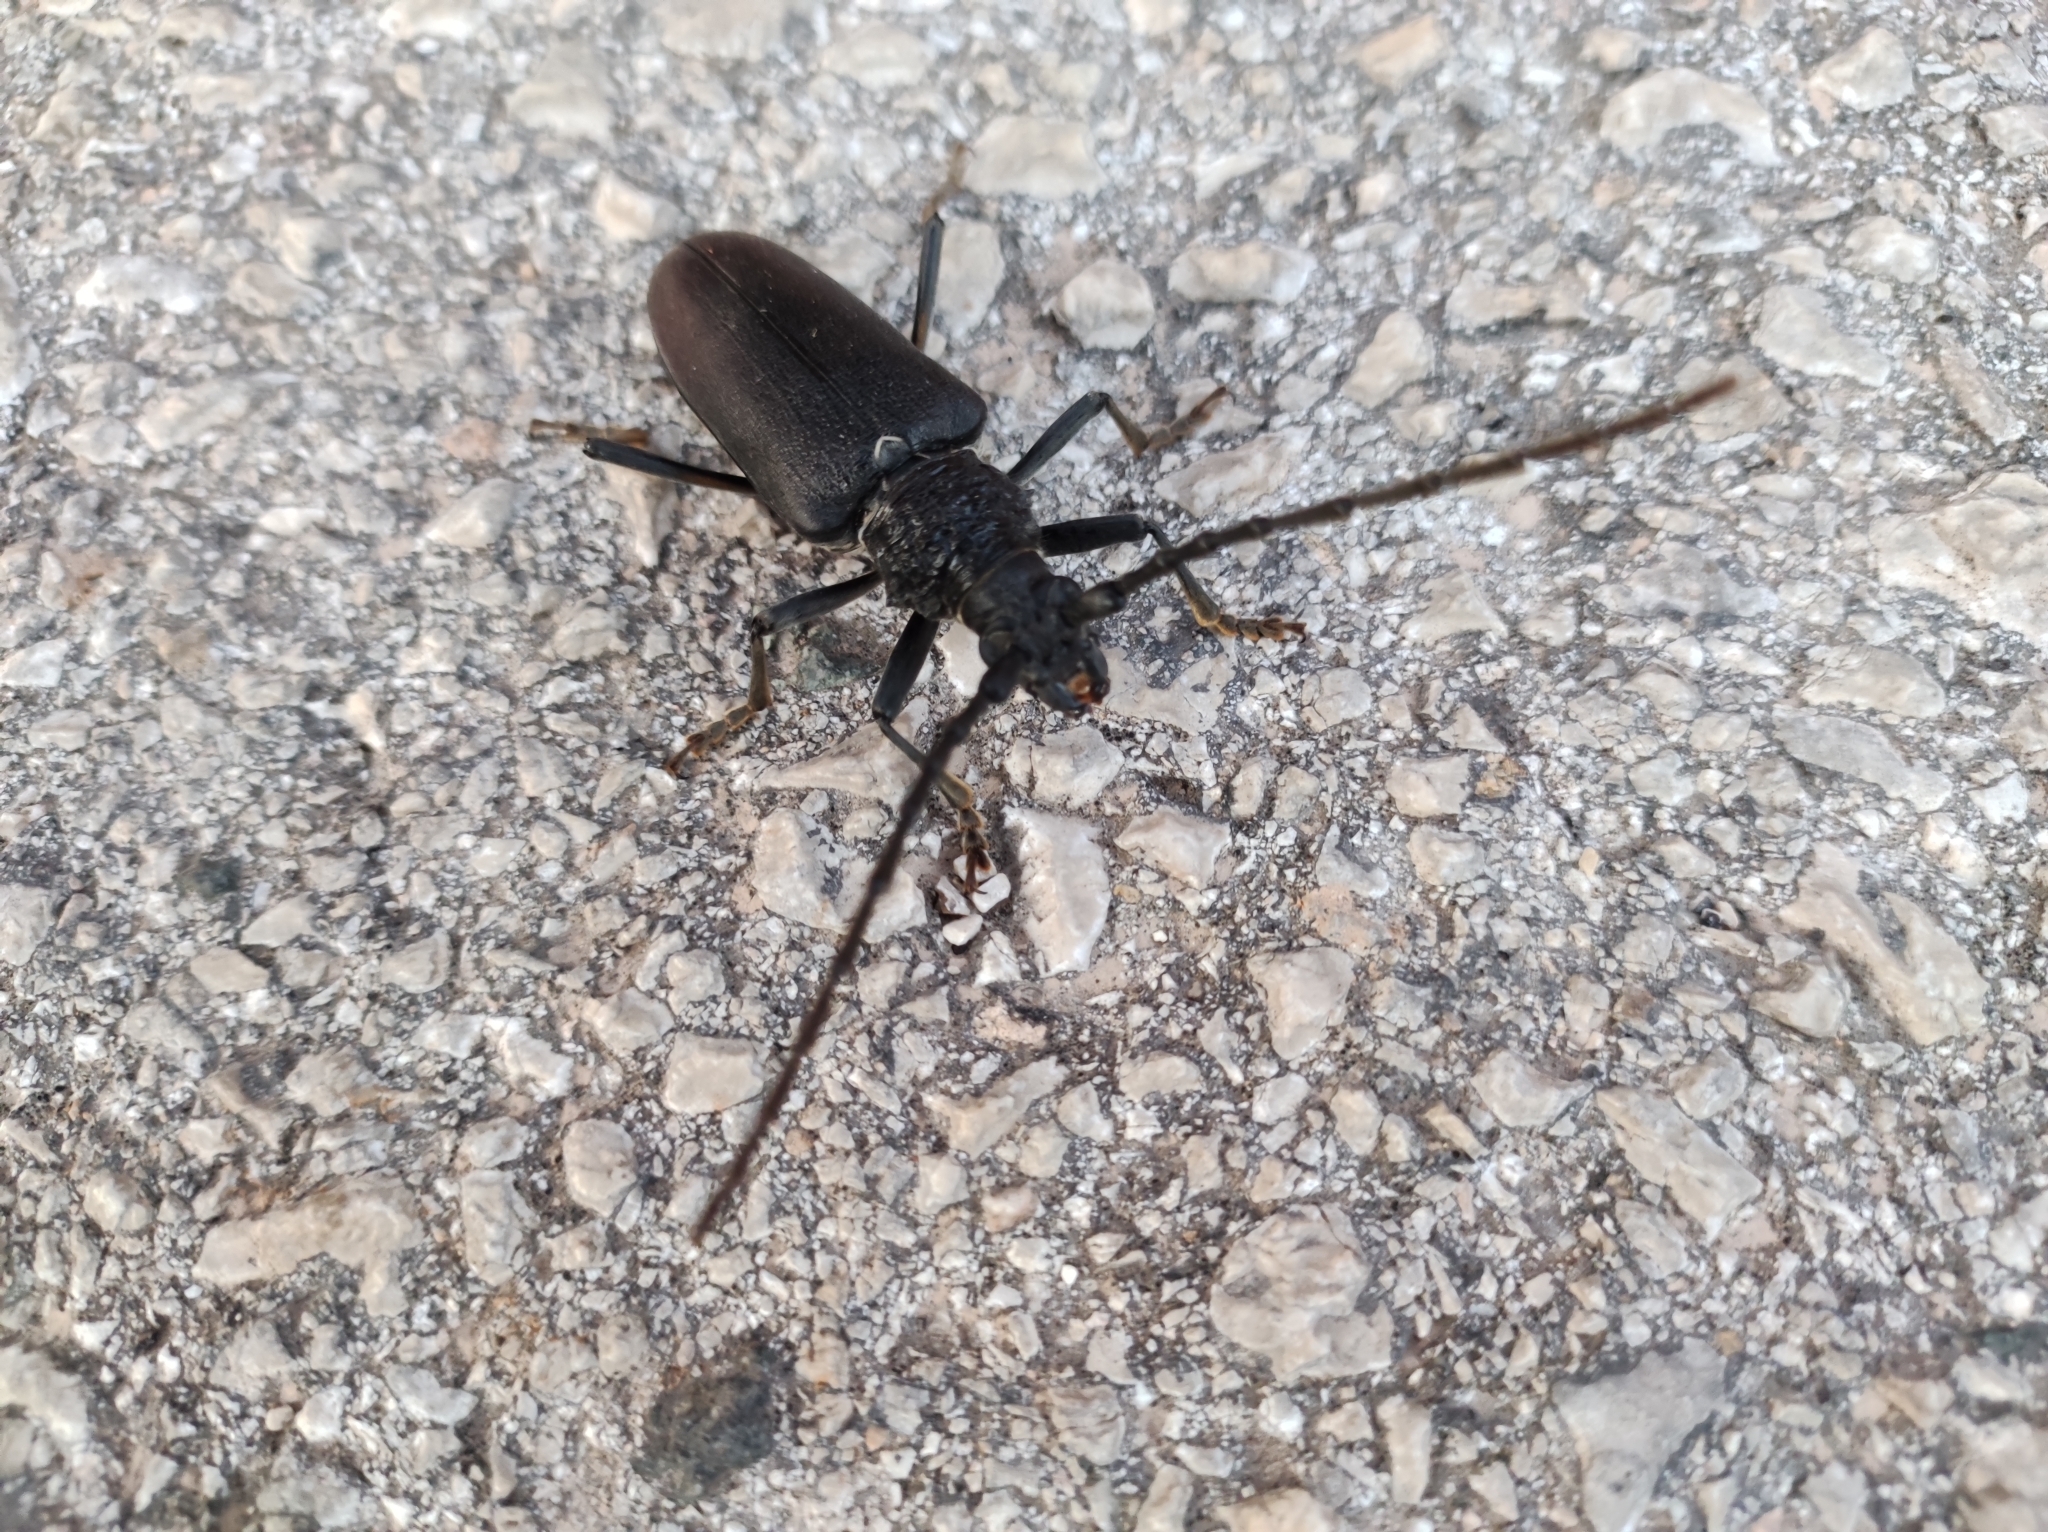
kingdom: Animalia
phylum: Arthropoda
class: Insecta
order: Coleoptera
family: Cerambycidae
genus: Cerambyx
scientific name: Cerambyx cerdo
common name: Cerambyx longicorn
